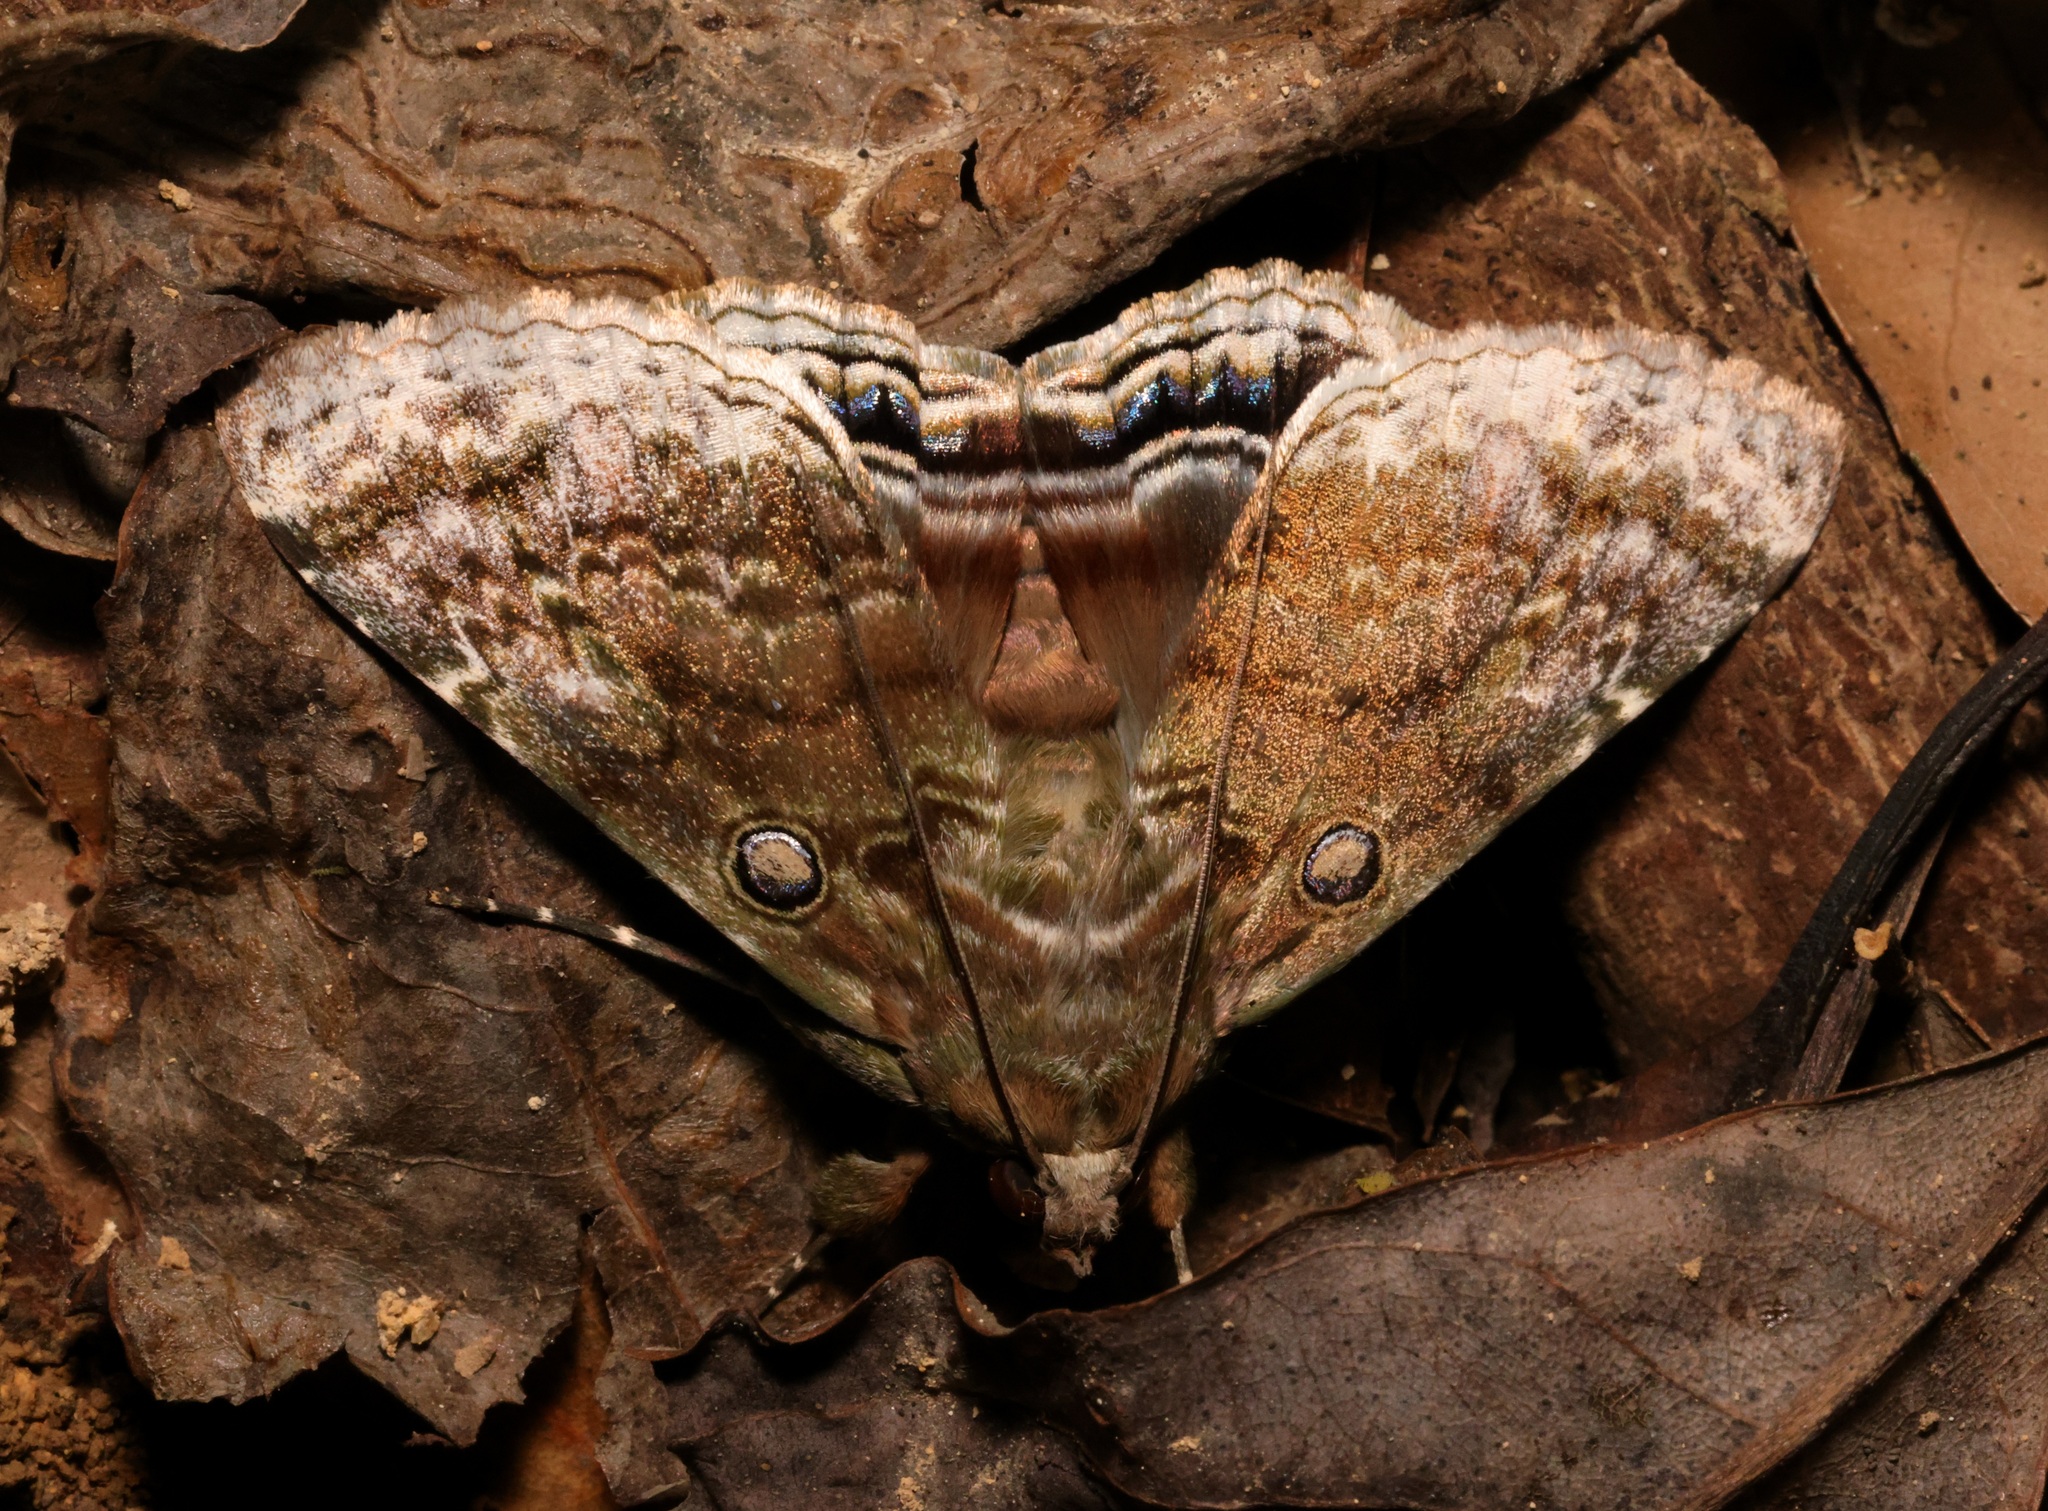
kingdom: Animalia
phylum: Arthropoda
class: Insecta
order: Lepidoptera
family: Erebidae
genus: Cyclodes
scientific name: Cyclodes omma
